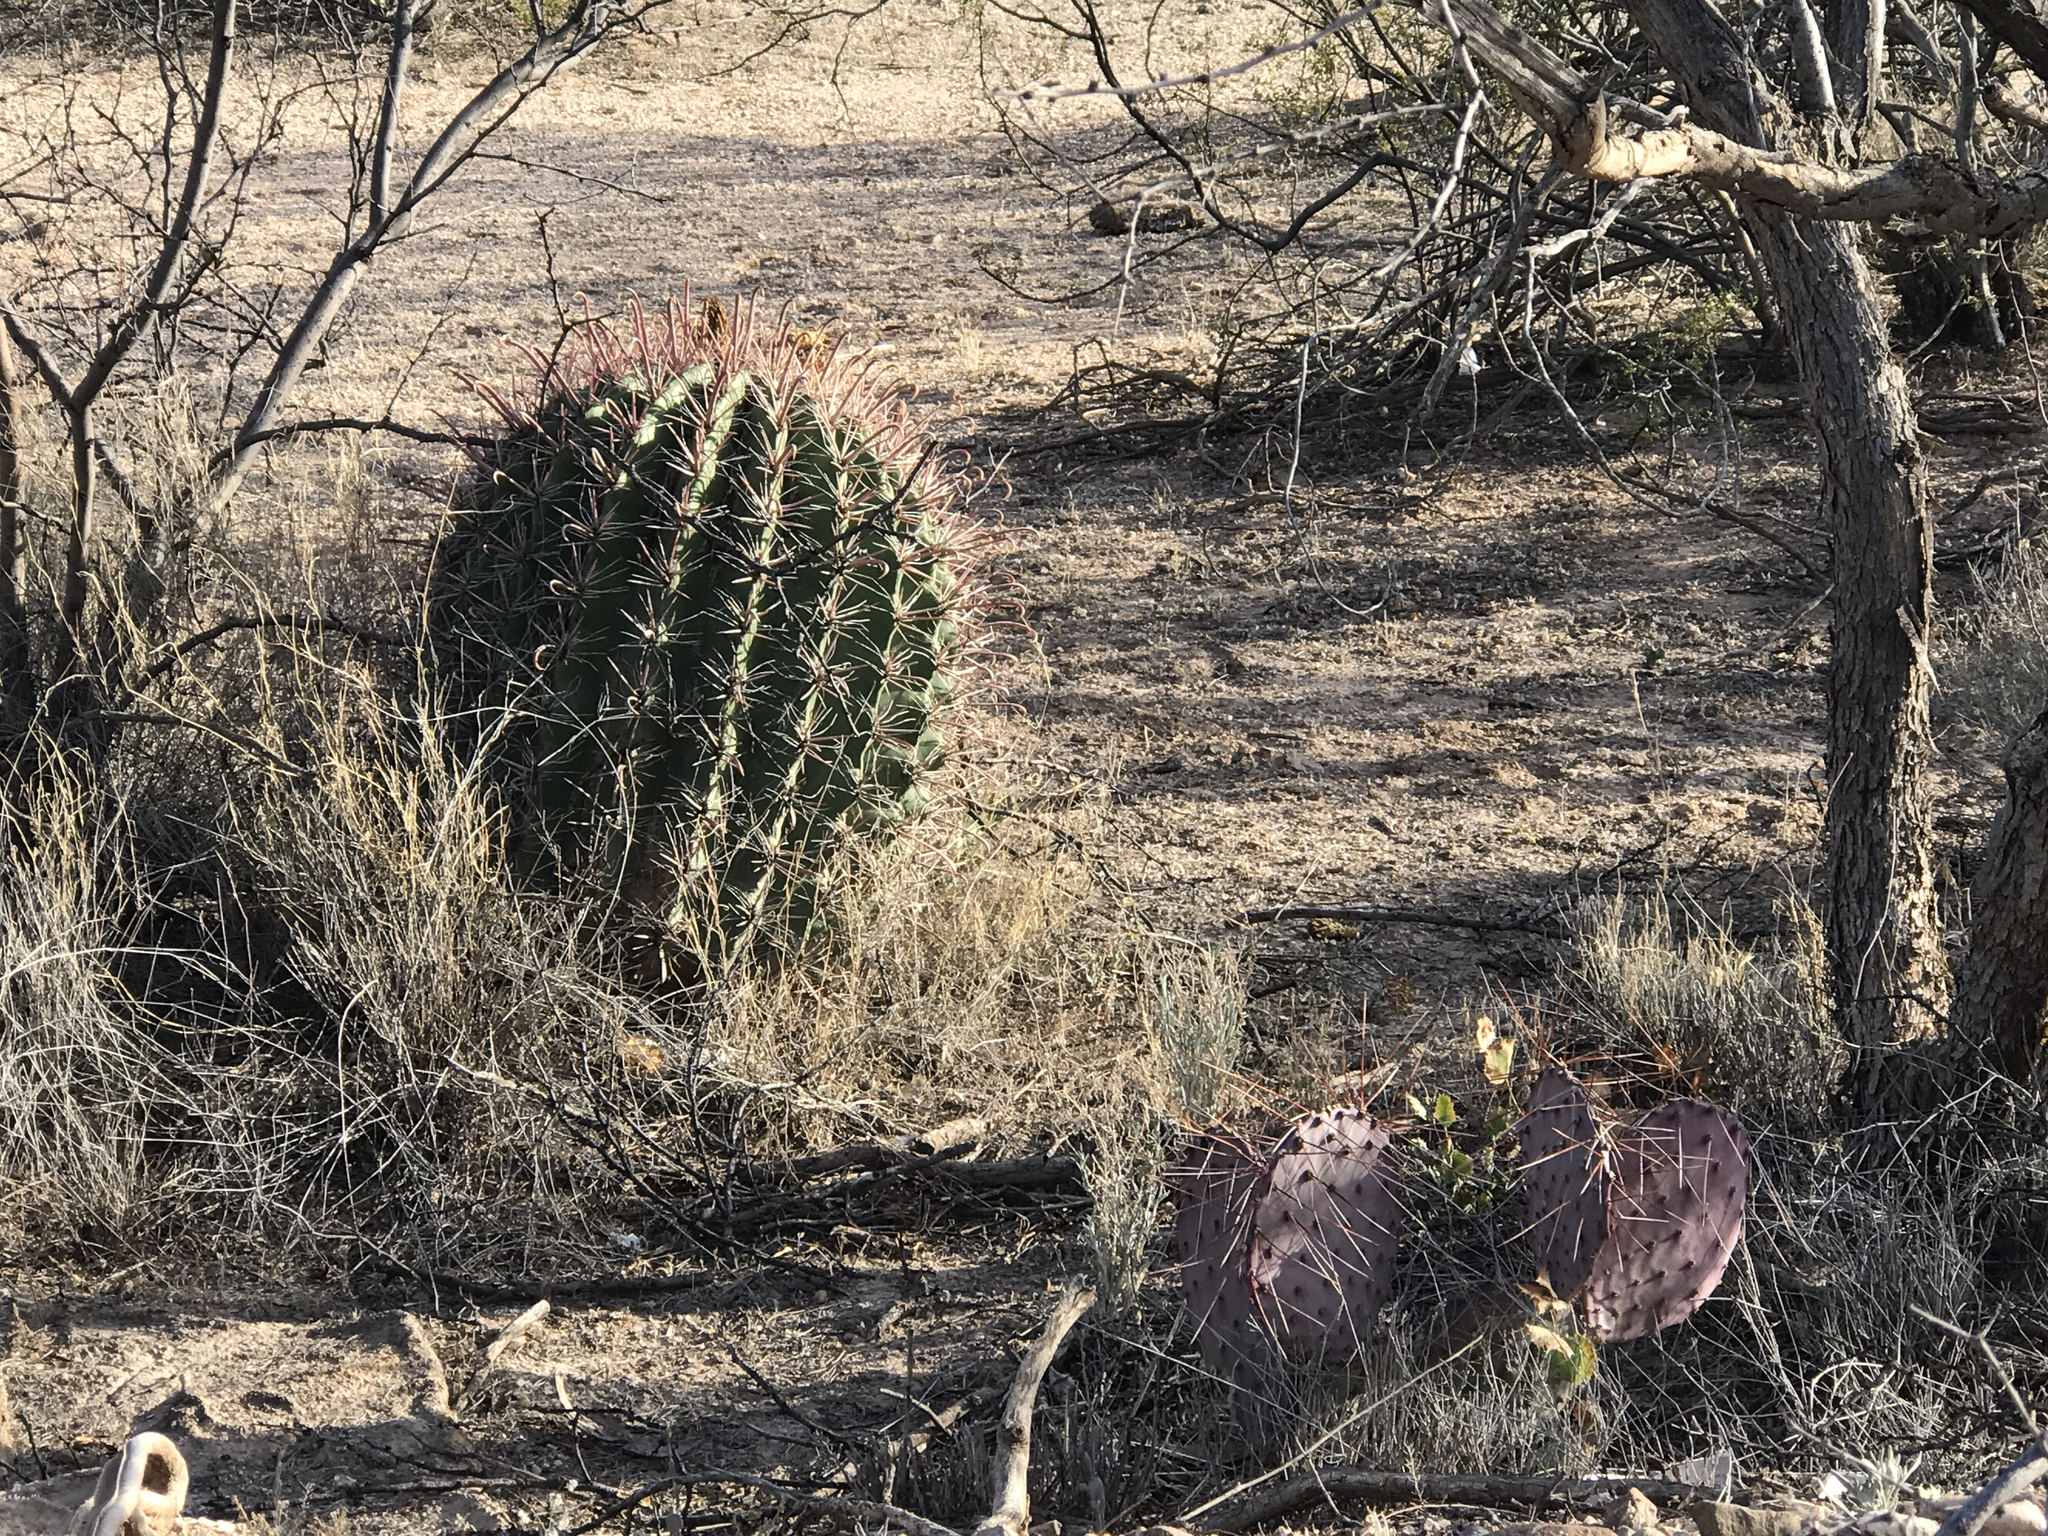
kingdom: Plantae
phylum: Tracheophyta
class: Magnoliopsida
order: Caryophyllales
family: Cactaceae
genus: Ferocactus
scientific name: Ferocactus wislizeni
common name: Candy barrel cactus
